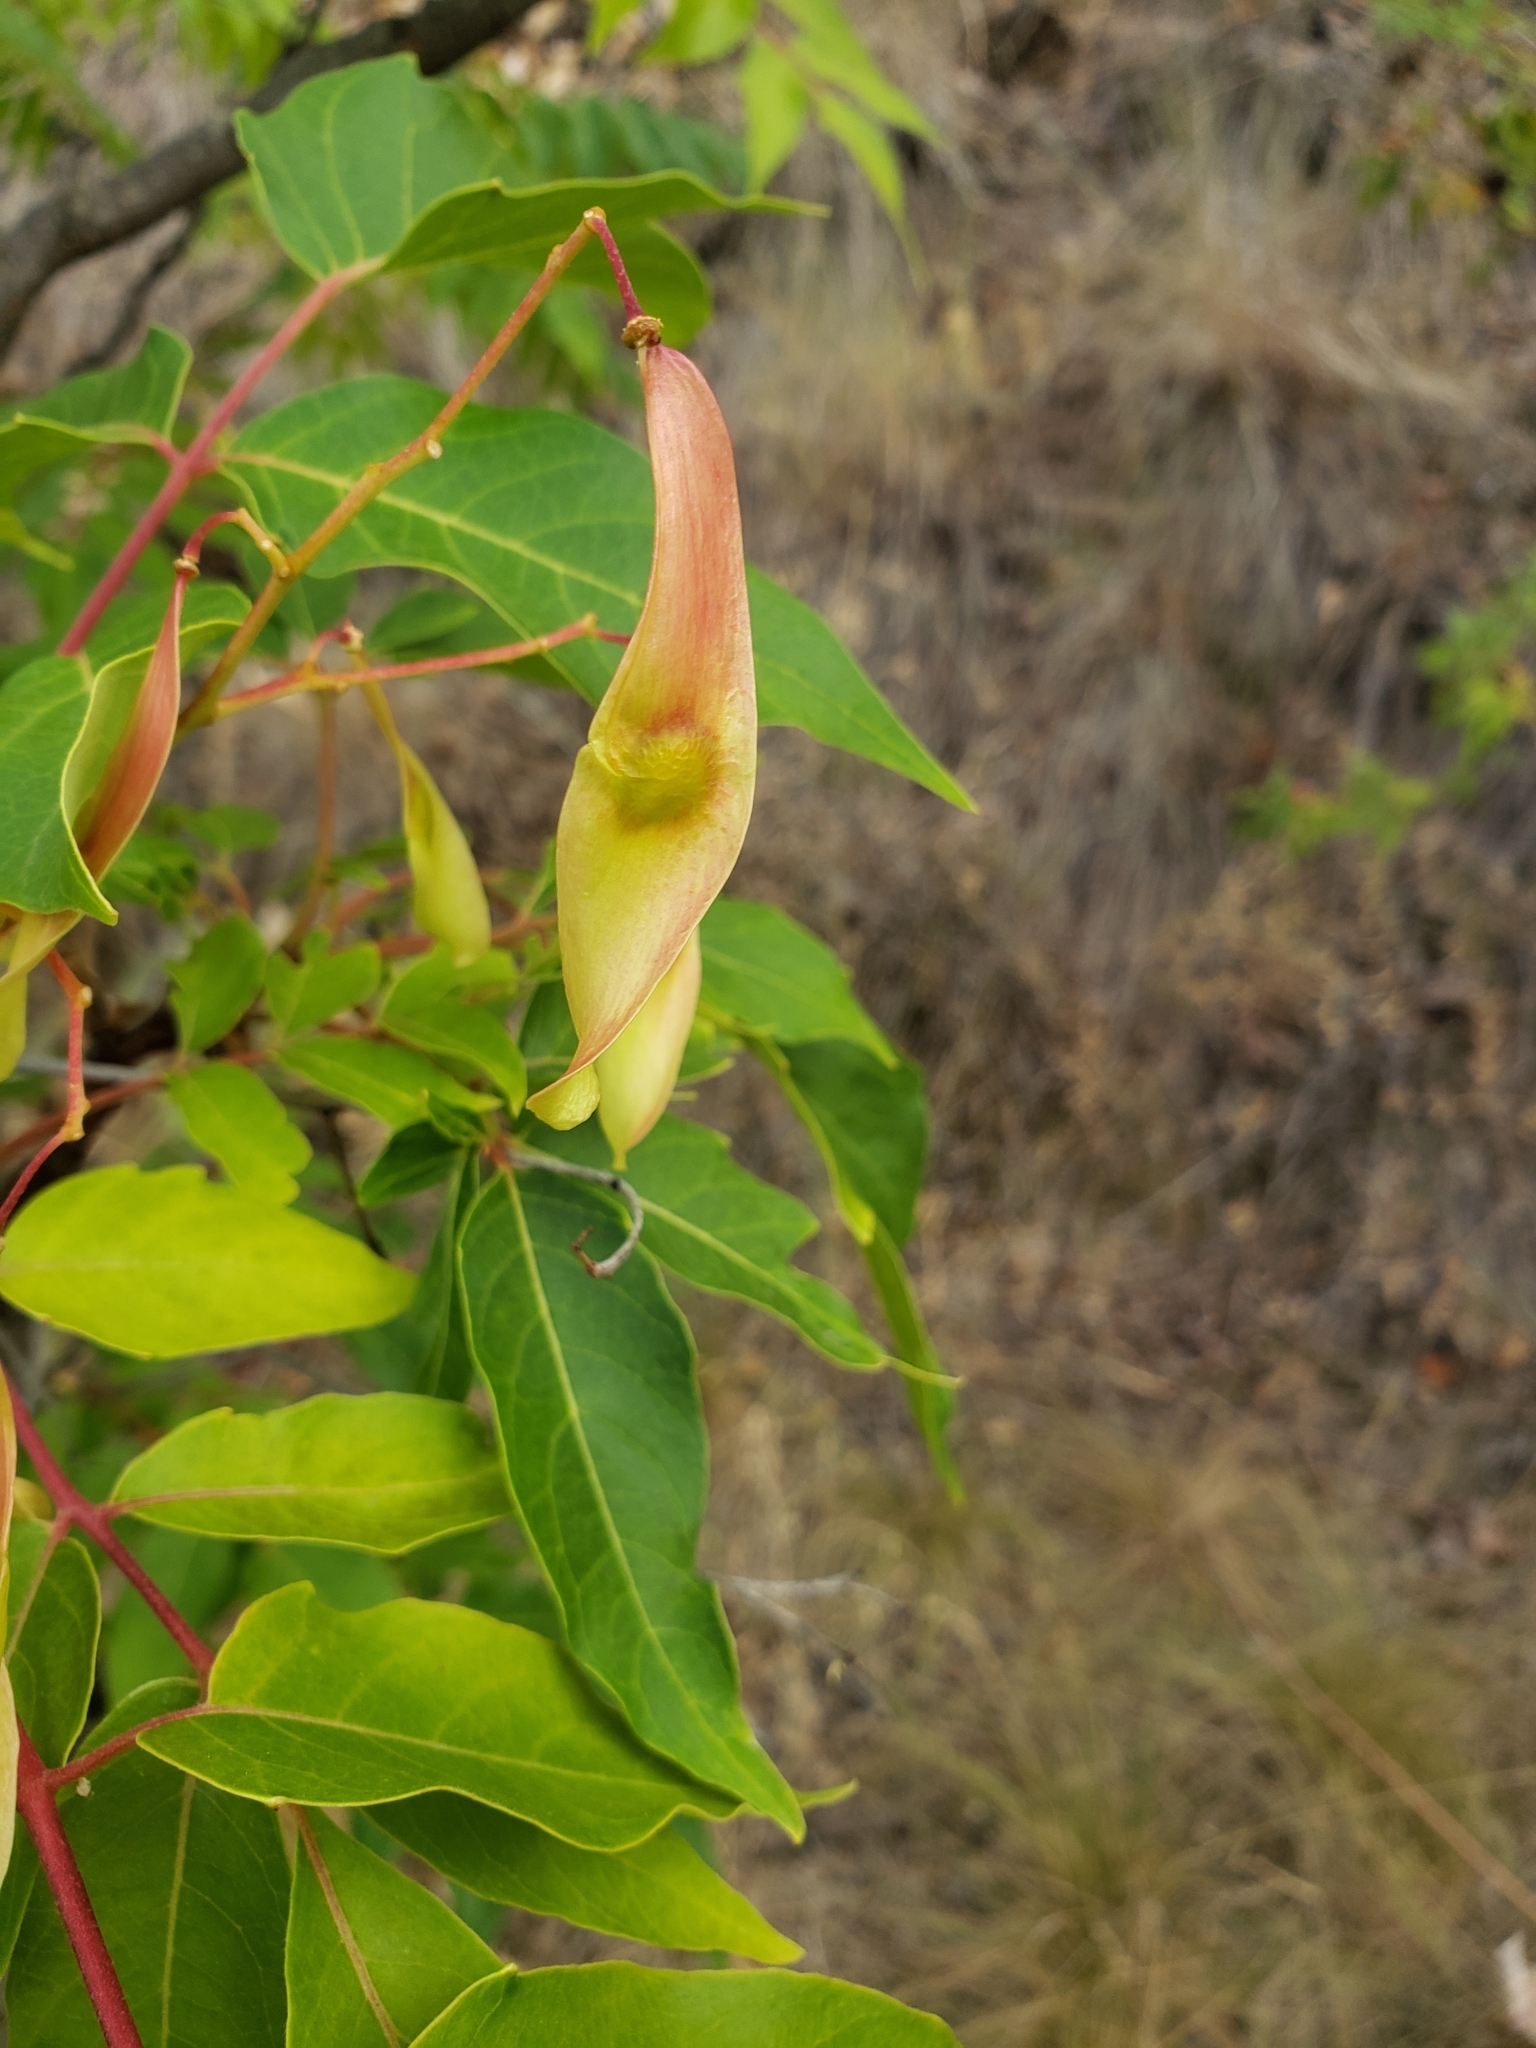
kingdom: Plantae
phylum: Tracheophyta
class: Magnoliopsida
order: Sapindales
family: Simaroubaceae
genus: Ailanthus
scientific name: Ailanthus altissima
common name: Tree-of-heaven
